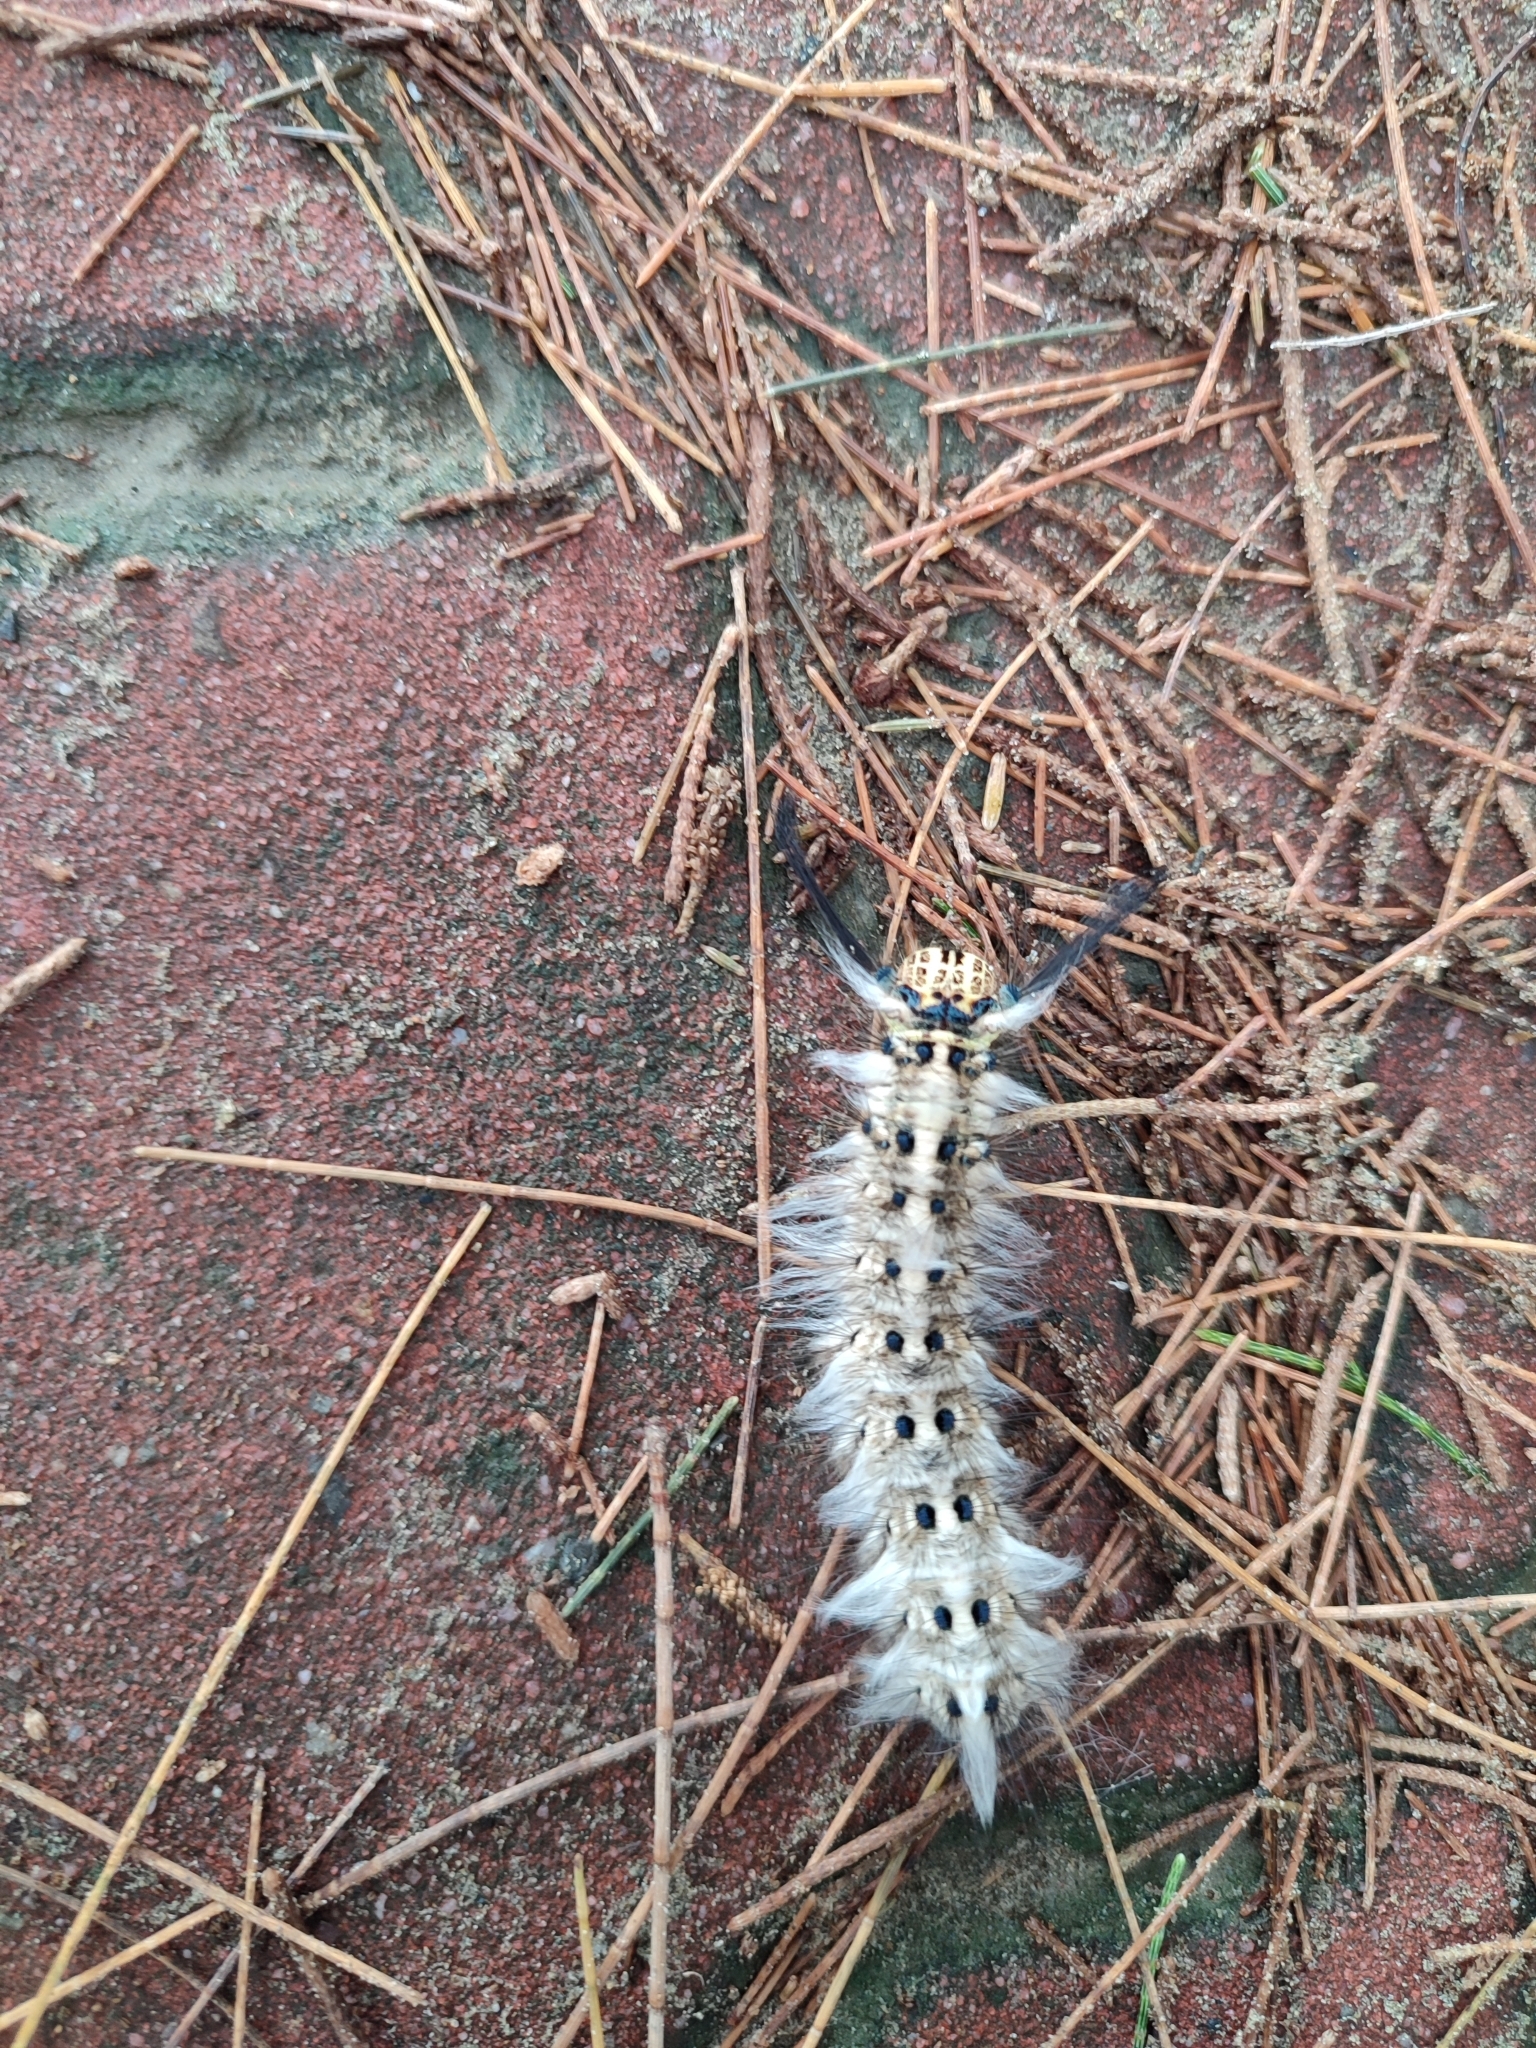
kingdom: Animalia
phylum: Arthropoda
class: Insecta
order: Lepidoptera
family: Lasiocampidae
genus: Trabala
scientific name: Trabala vishnou
